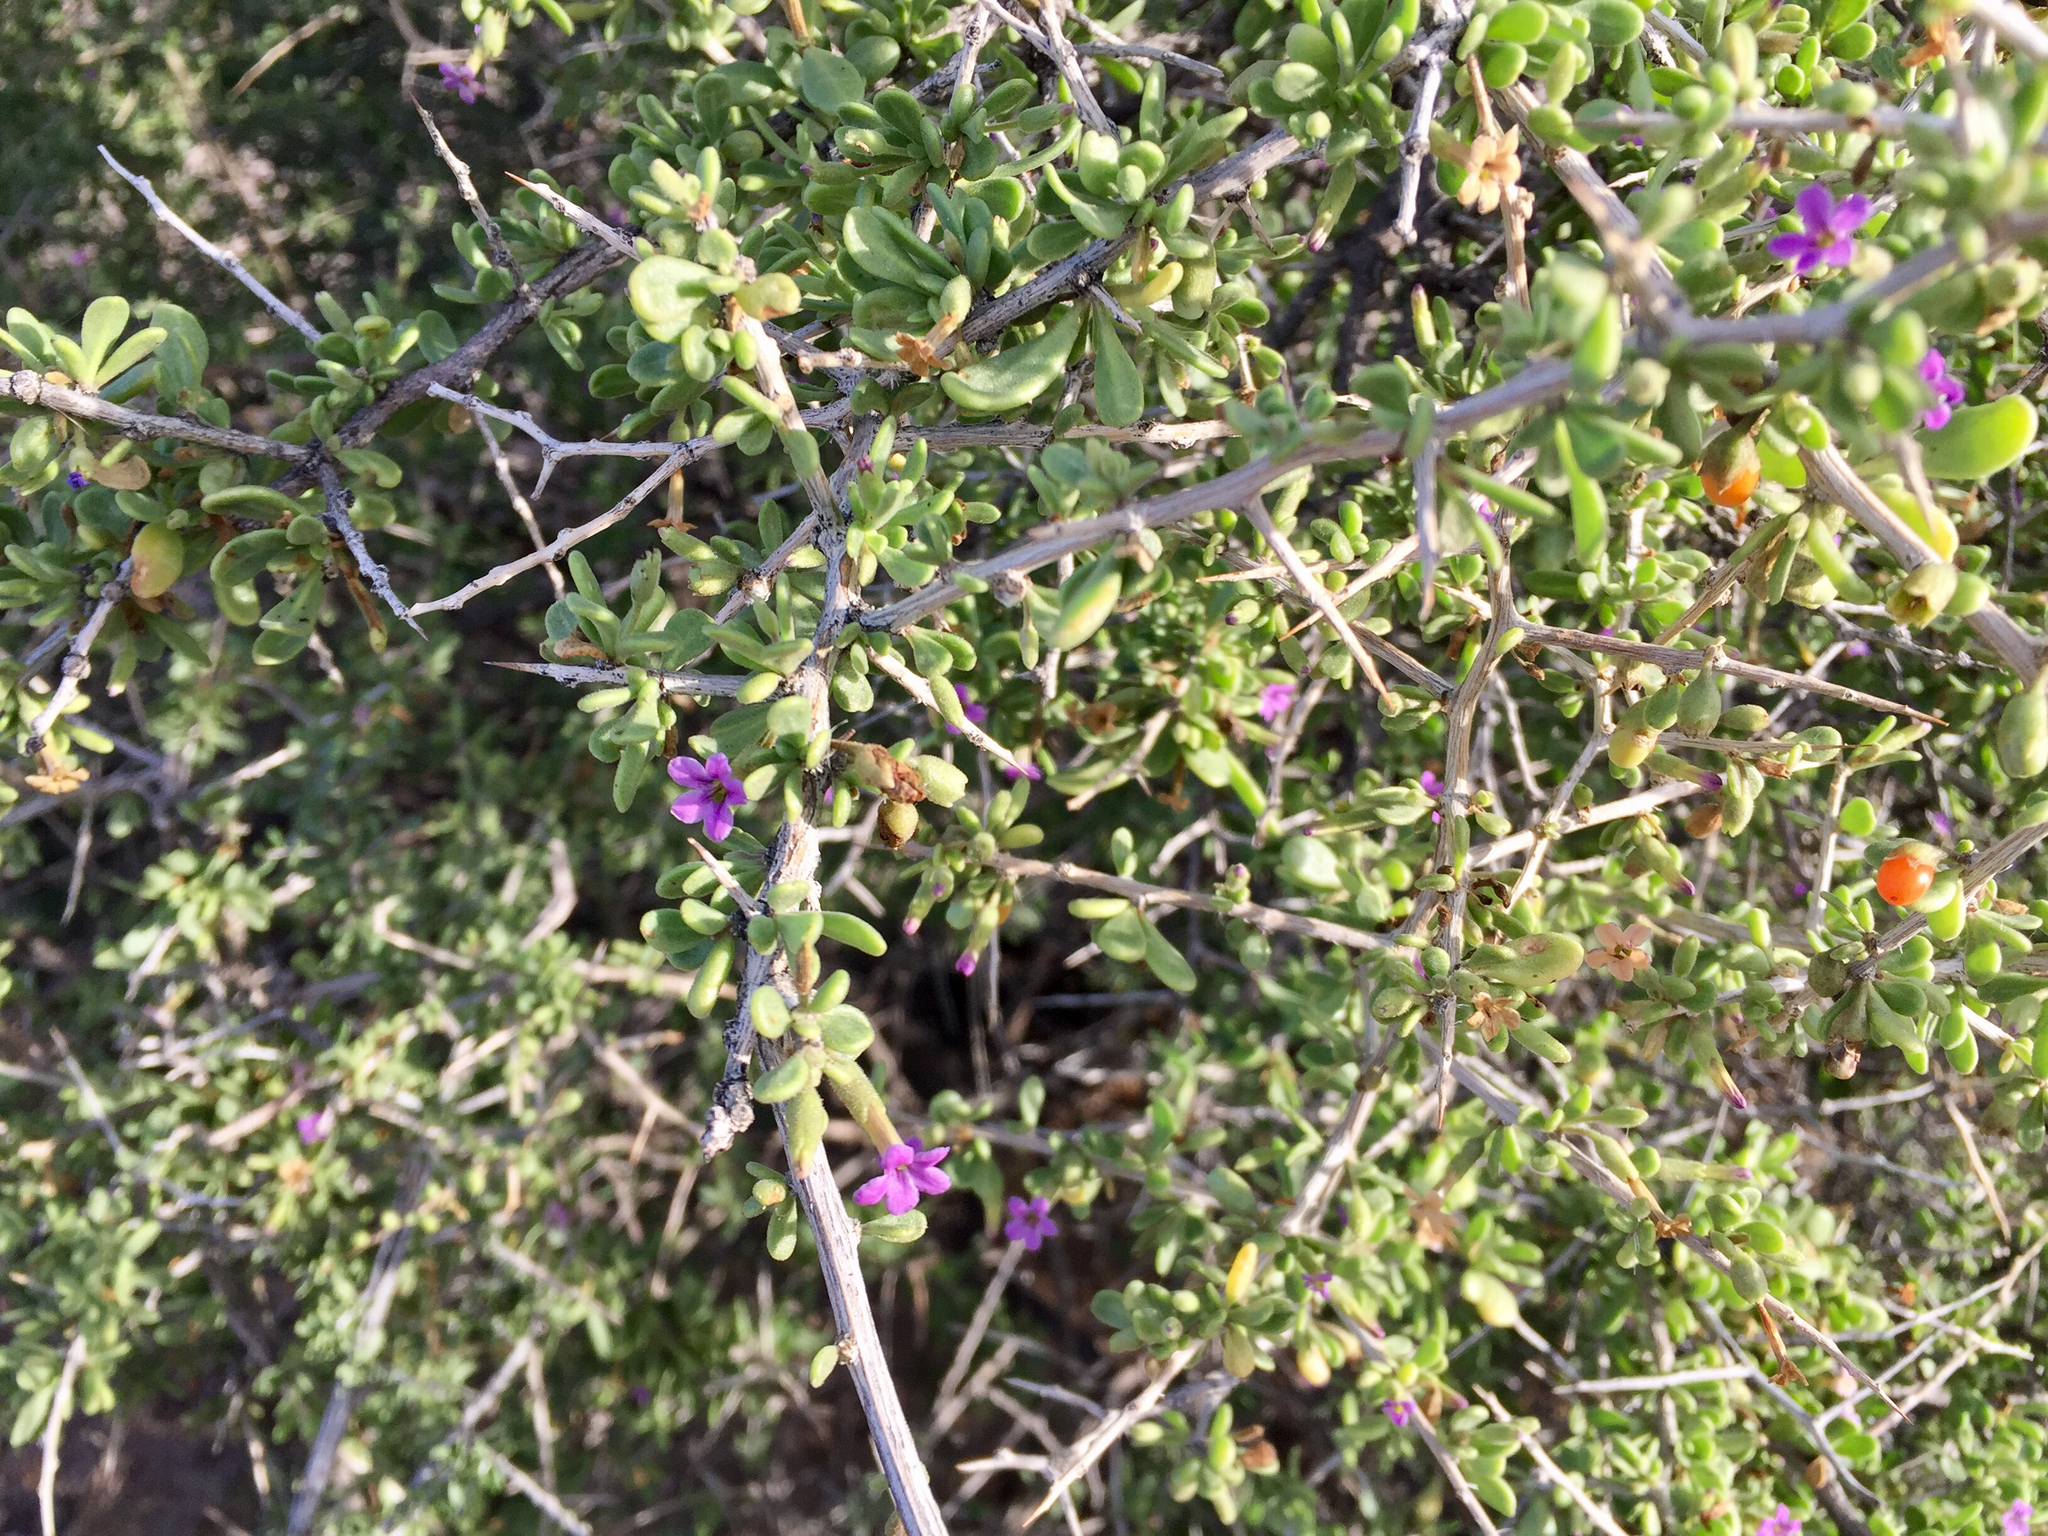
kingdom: Plantae
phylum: Tracheophyta
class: Magnoliopsida
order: Solanales
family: Solanaceae
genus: Lycium
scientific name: Lycium fremontii
